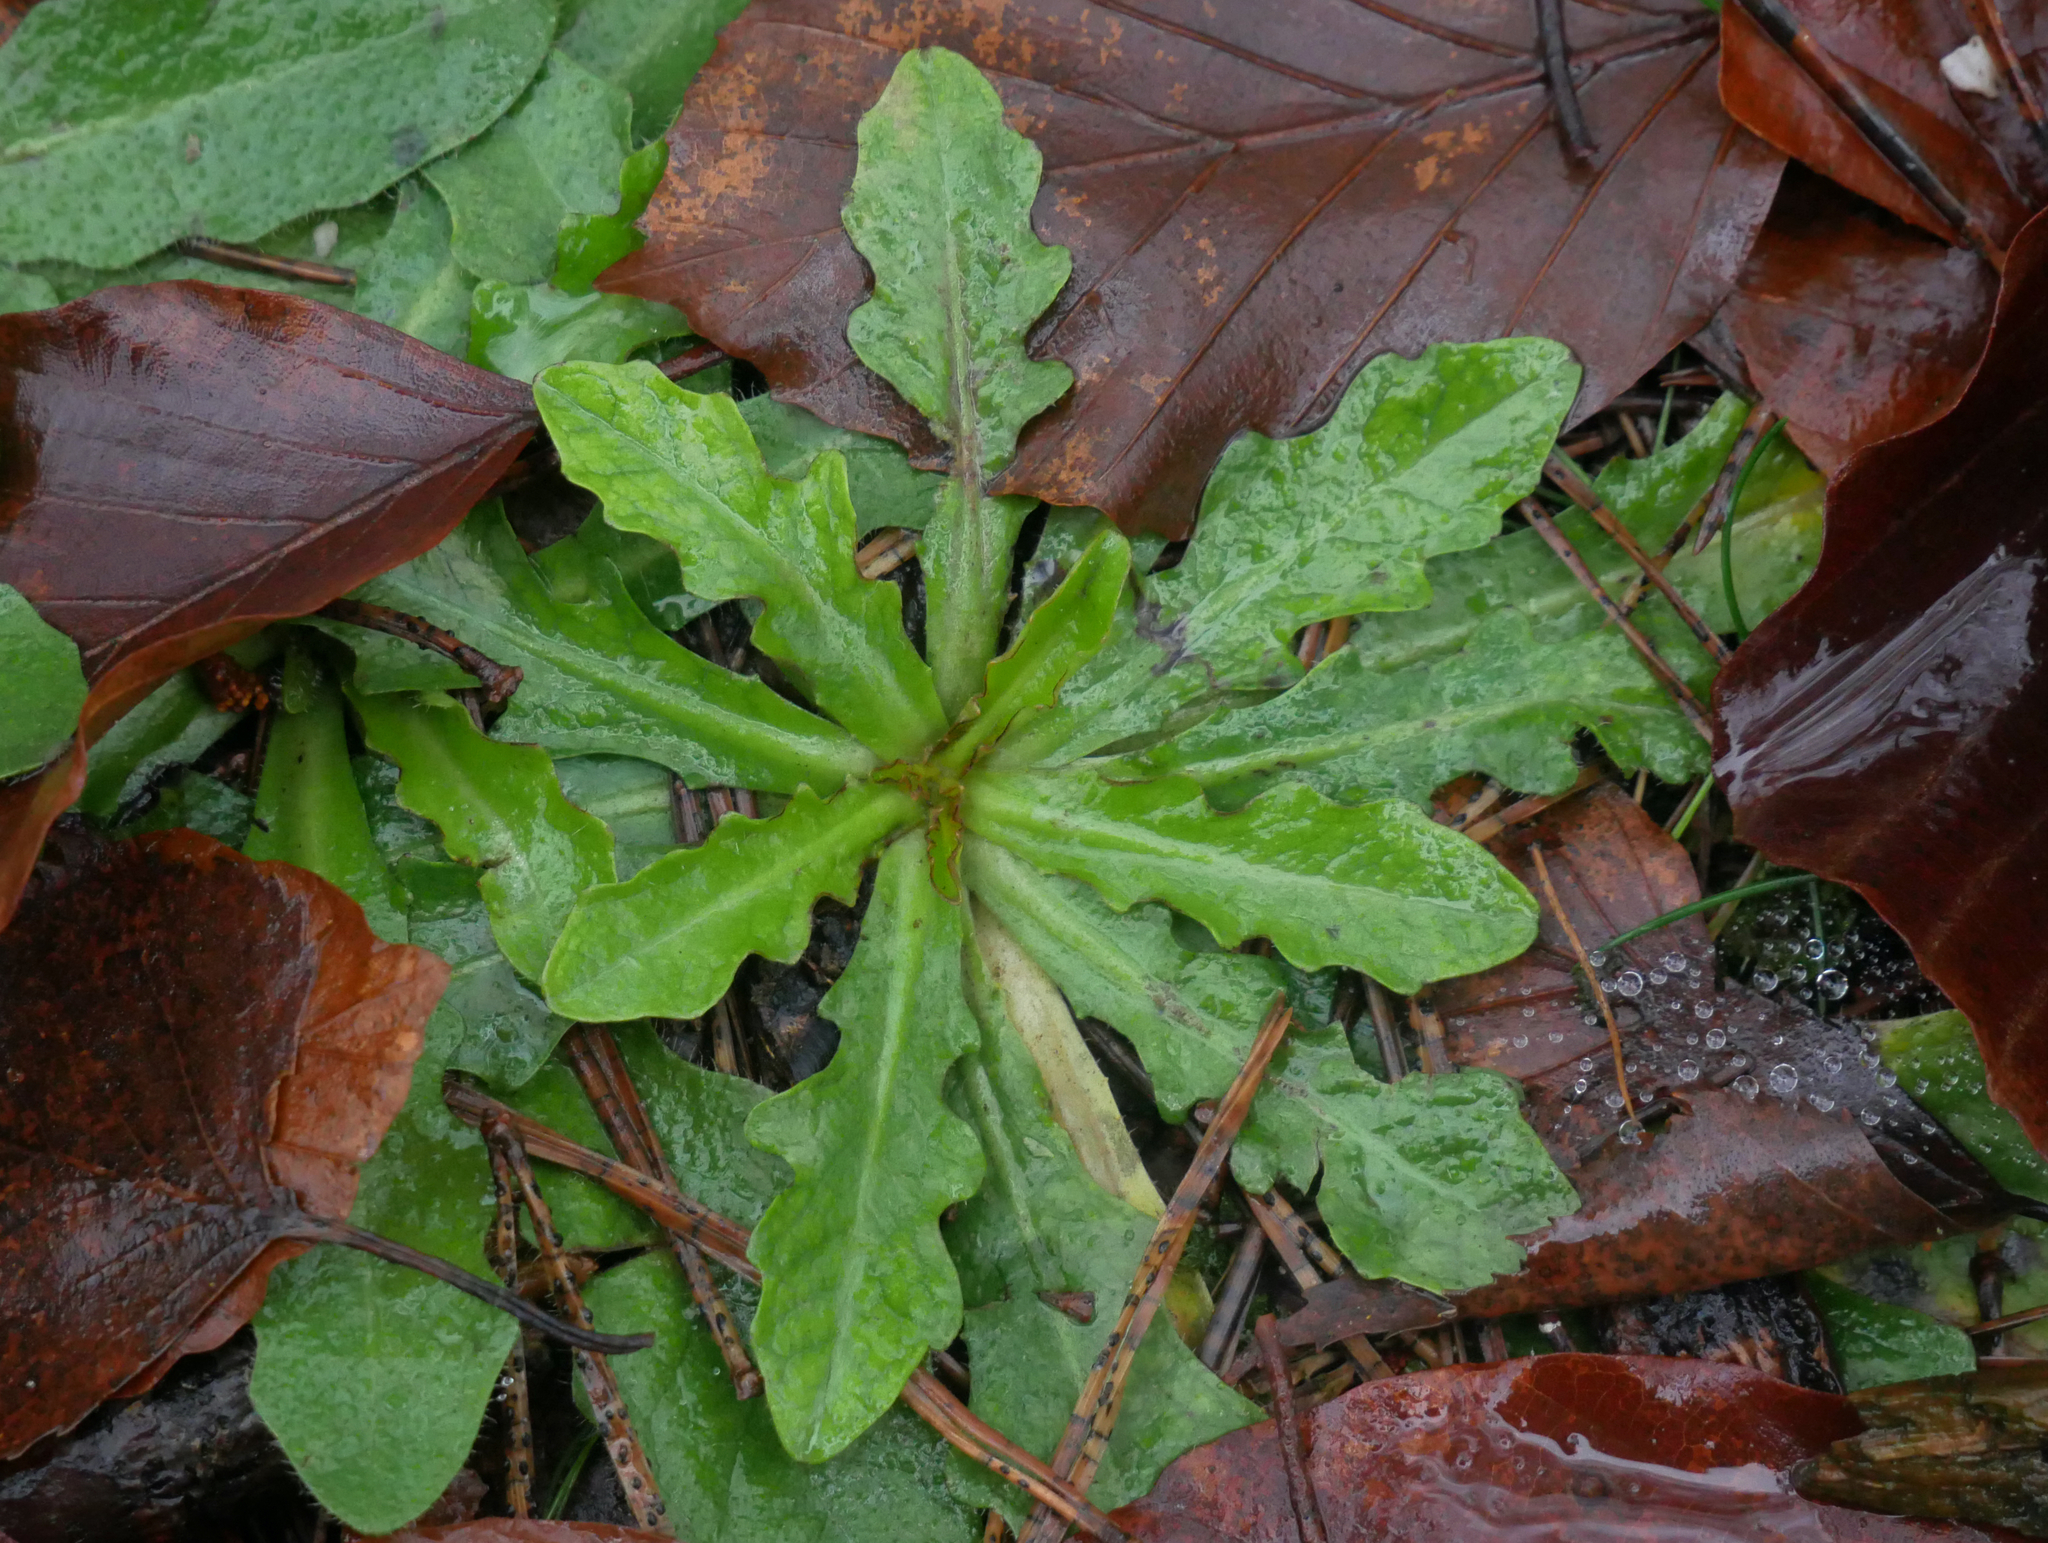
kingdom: Plantae
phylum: Tracheophyta
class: Magnoliopsida
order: Asterales
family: Asteraceae
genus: Hypochaeris
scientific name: Hypochaeris radicata
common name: Flatweed
